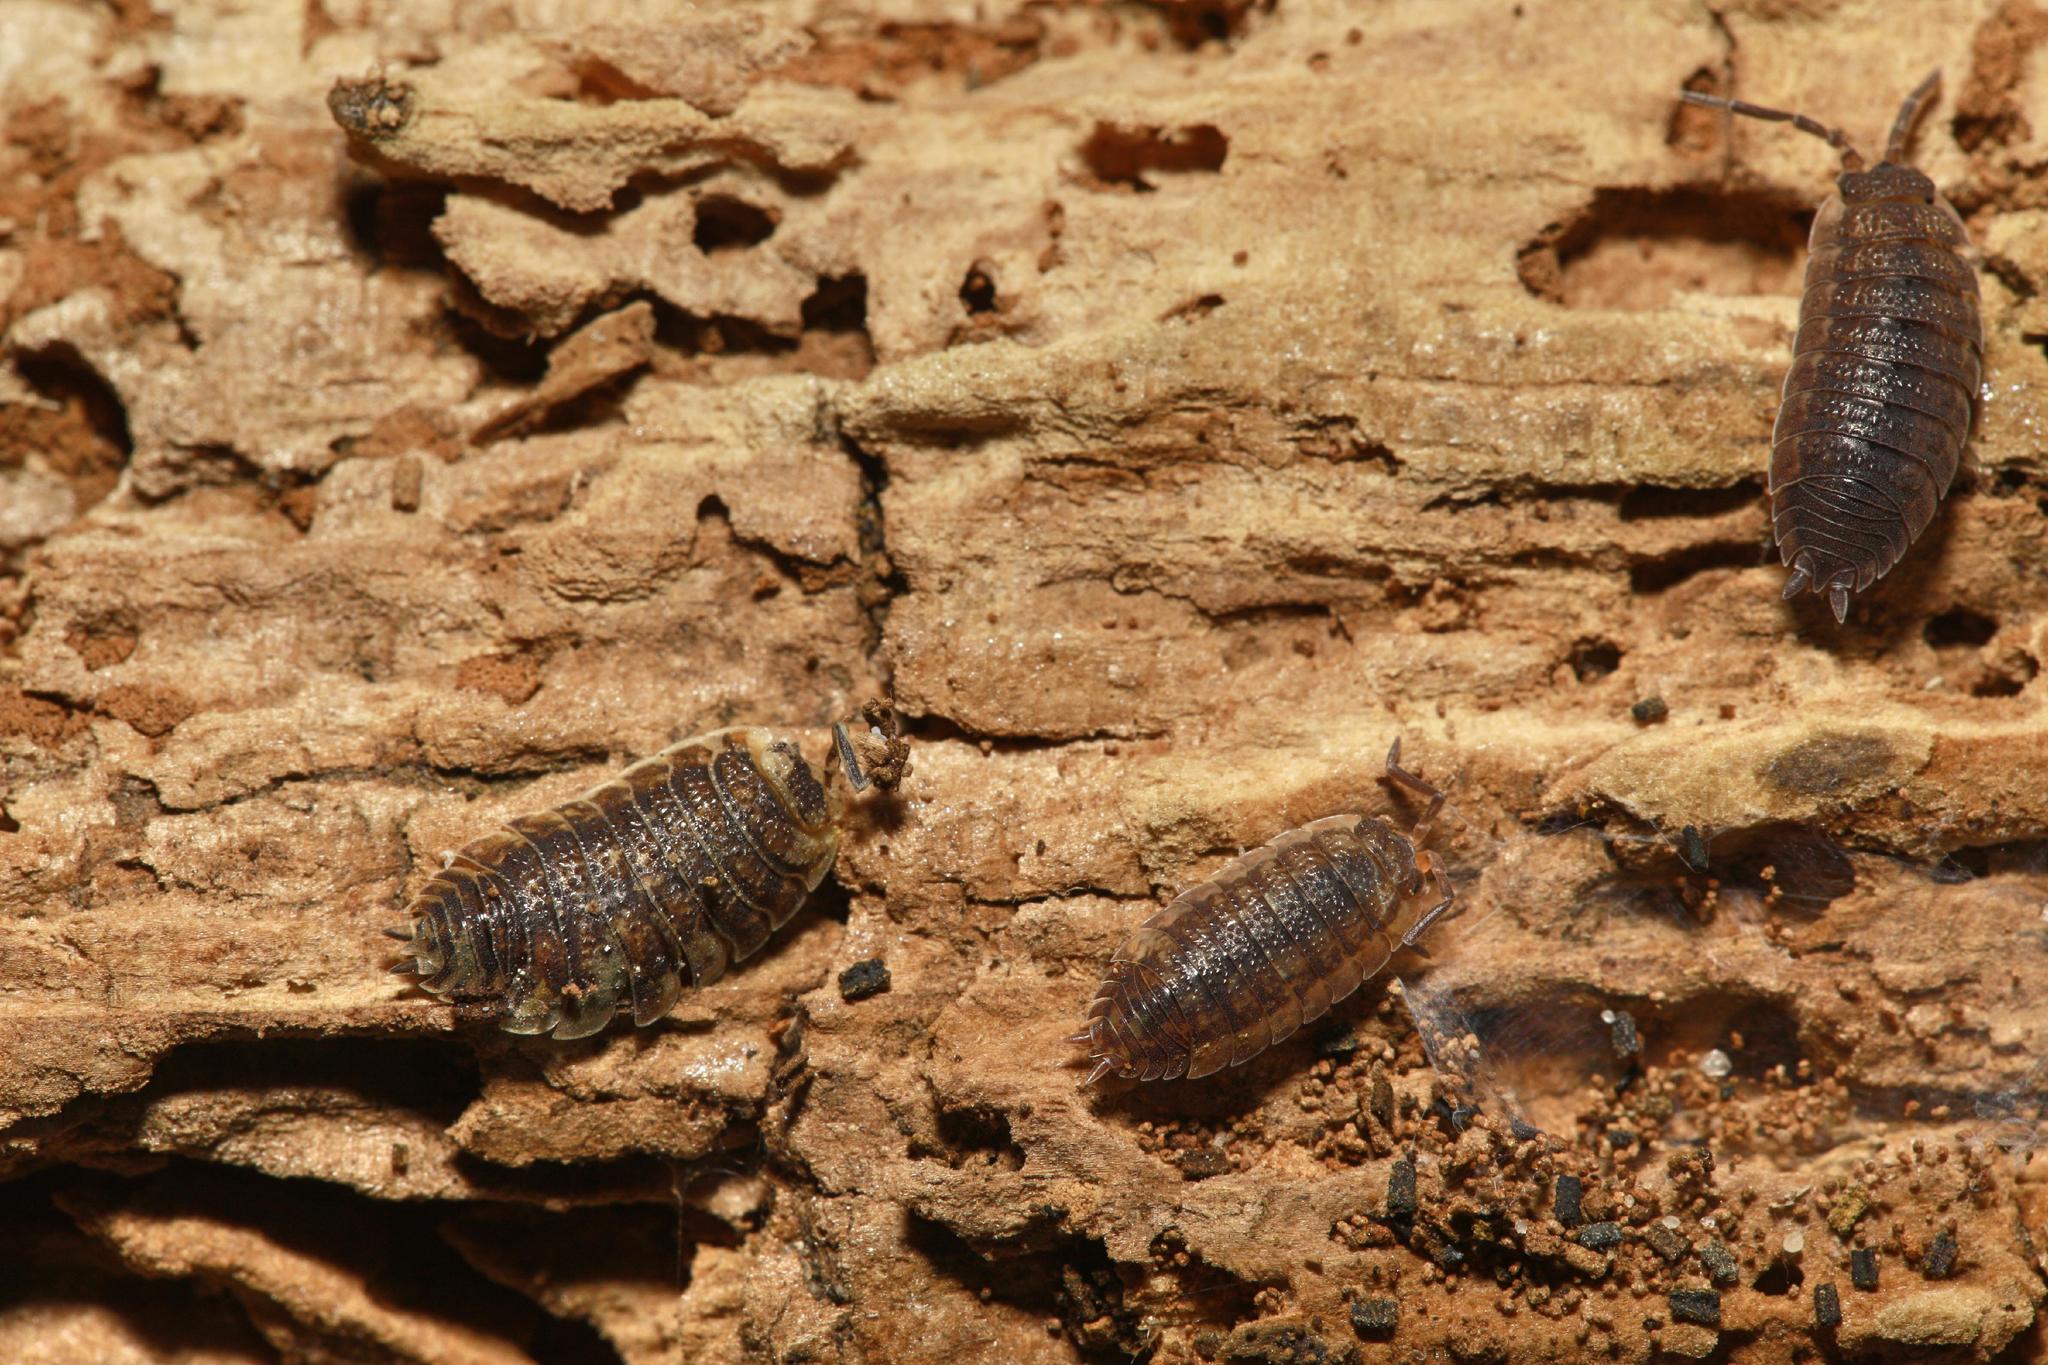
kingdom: Animalia
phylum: Arthropoda
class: Malacostraca
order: Isopoda
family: Porcellionidae
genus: Porcellio
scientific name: Porcellio scaber
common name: Common rough woodlouse
